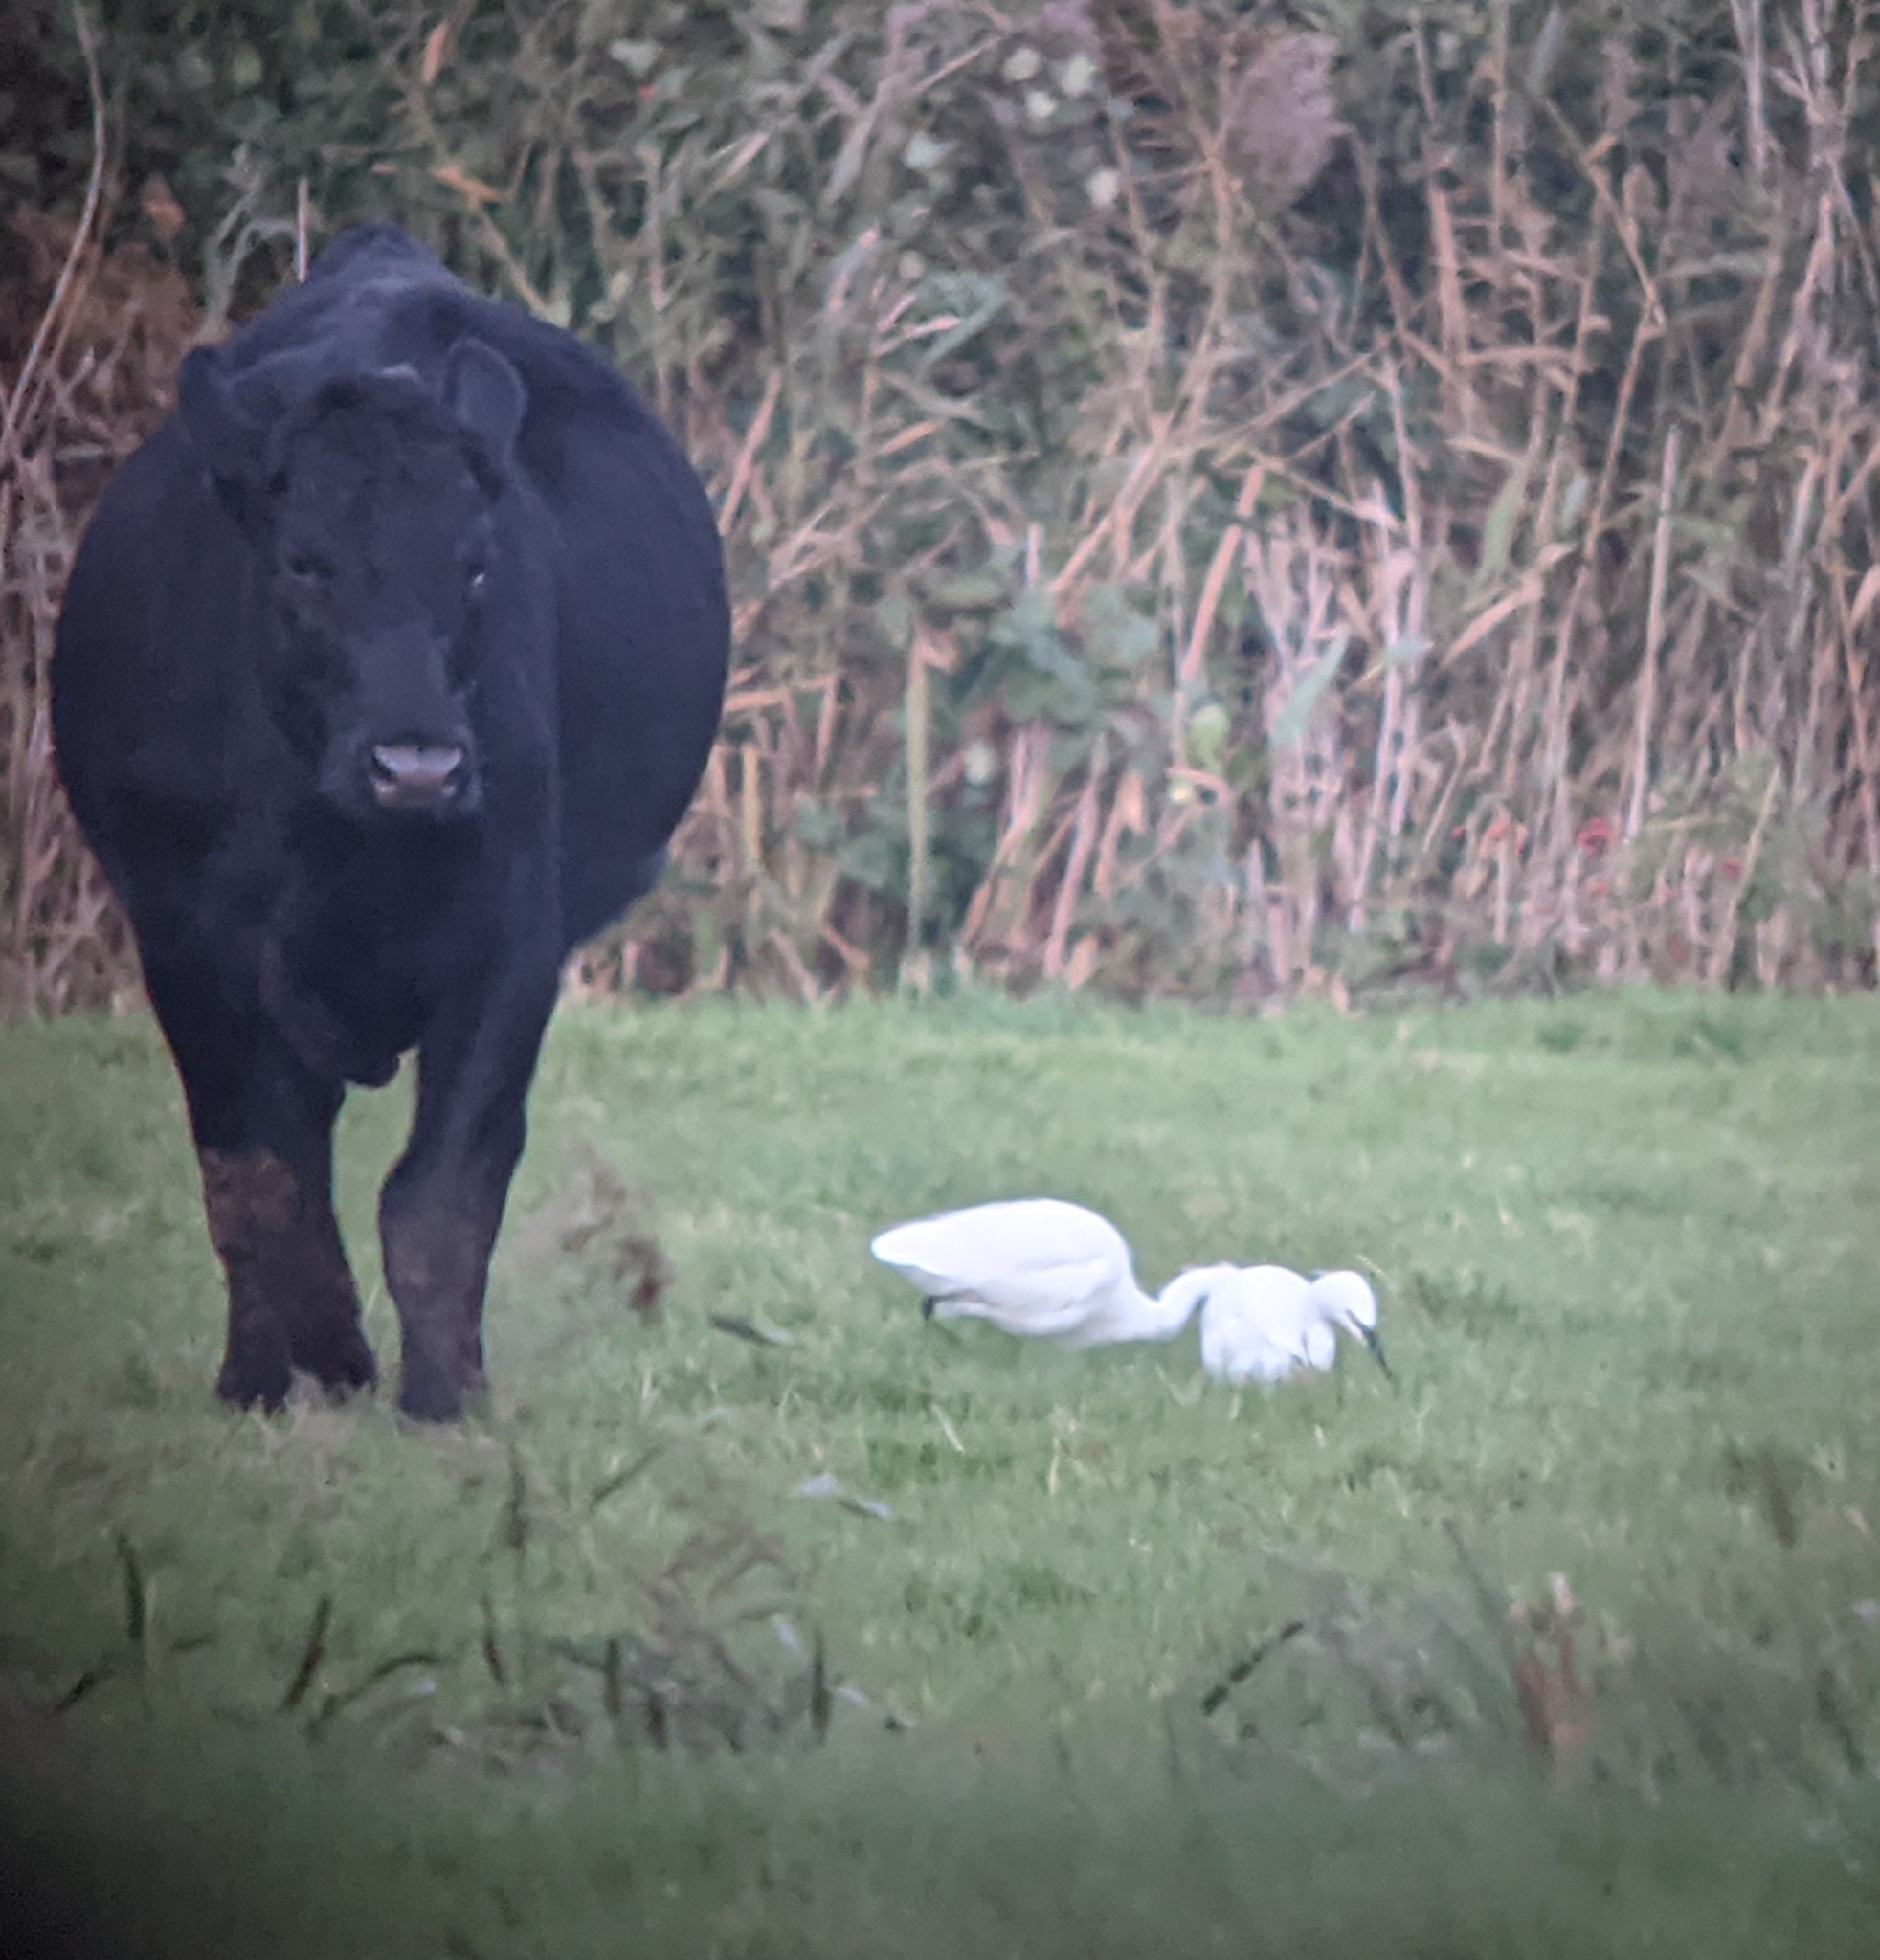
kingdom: Animalia
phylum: Chordata
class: Aves
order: Pelecaniformes
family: Ardeidae
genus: Egretta
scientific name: Egretta garzetta
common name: Little egret
